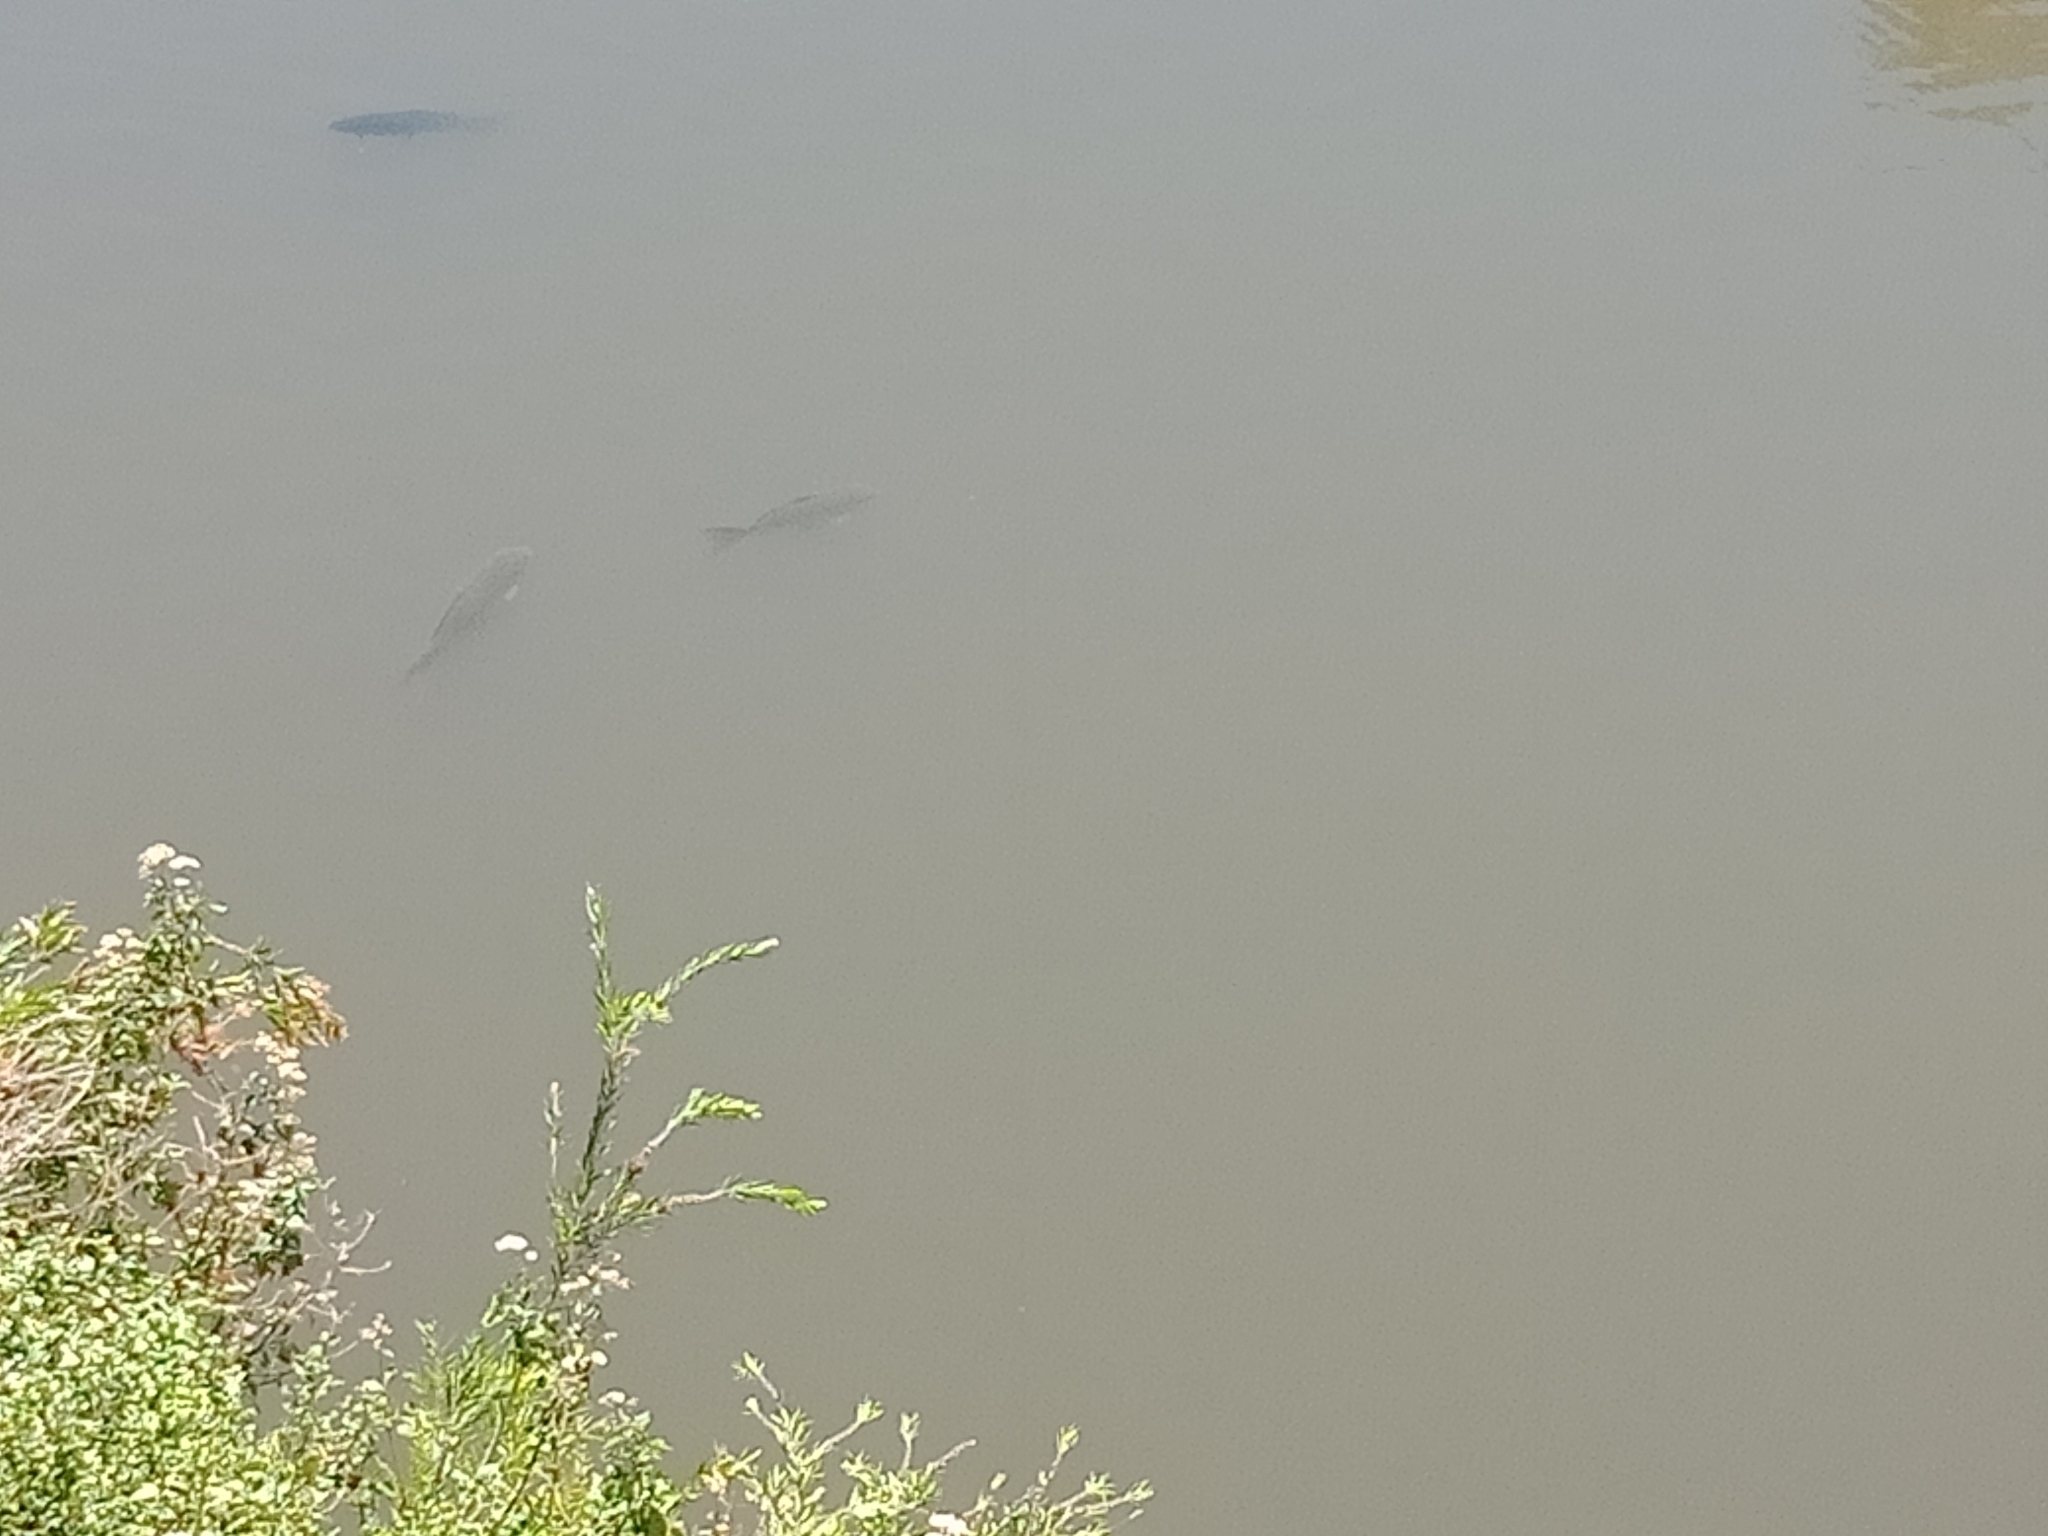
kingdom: Animalia
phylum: Chordata
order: Cypriniformes
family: Cyprinidae
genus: Cyprinus
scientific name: Cyprinus carpio
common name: Common carp
